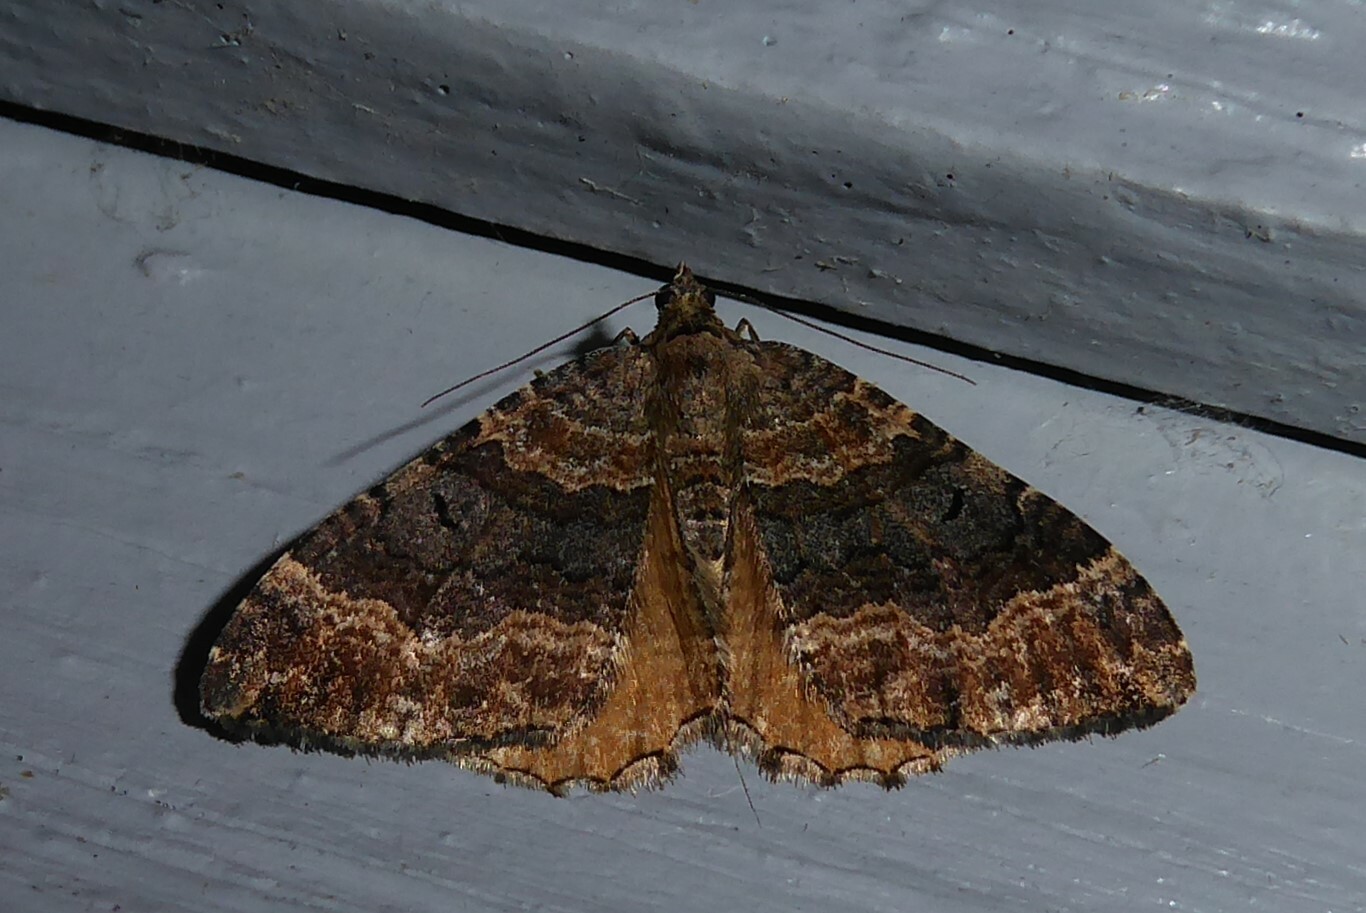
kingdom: Animalia
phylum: Arthropoda
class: Insecta
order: Lepidoptera
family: Geometridae
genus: Hydriomena
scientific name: Hydriomena deltoidata
